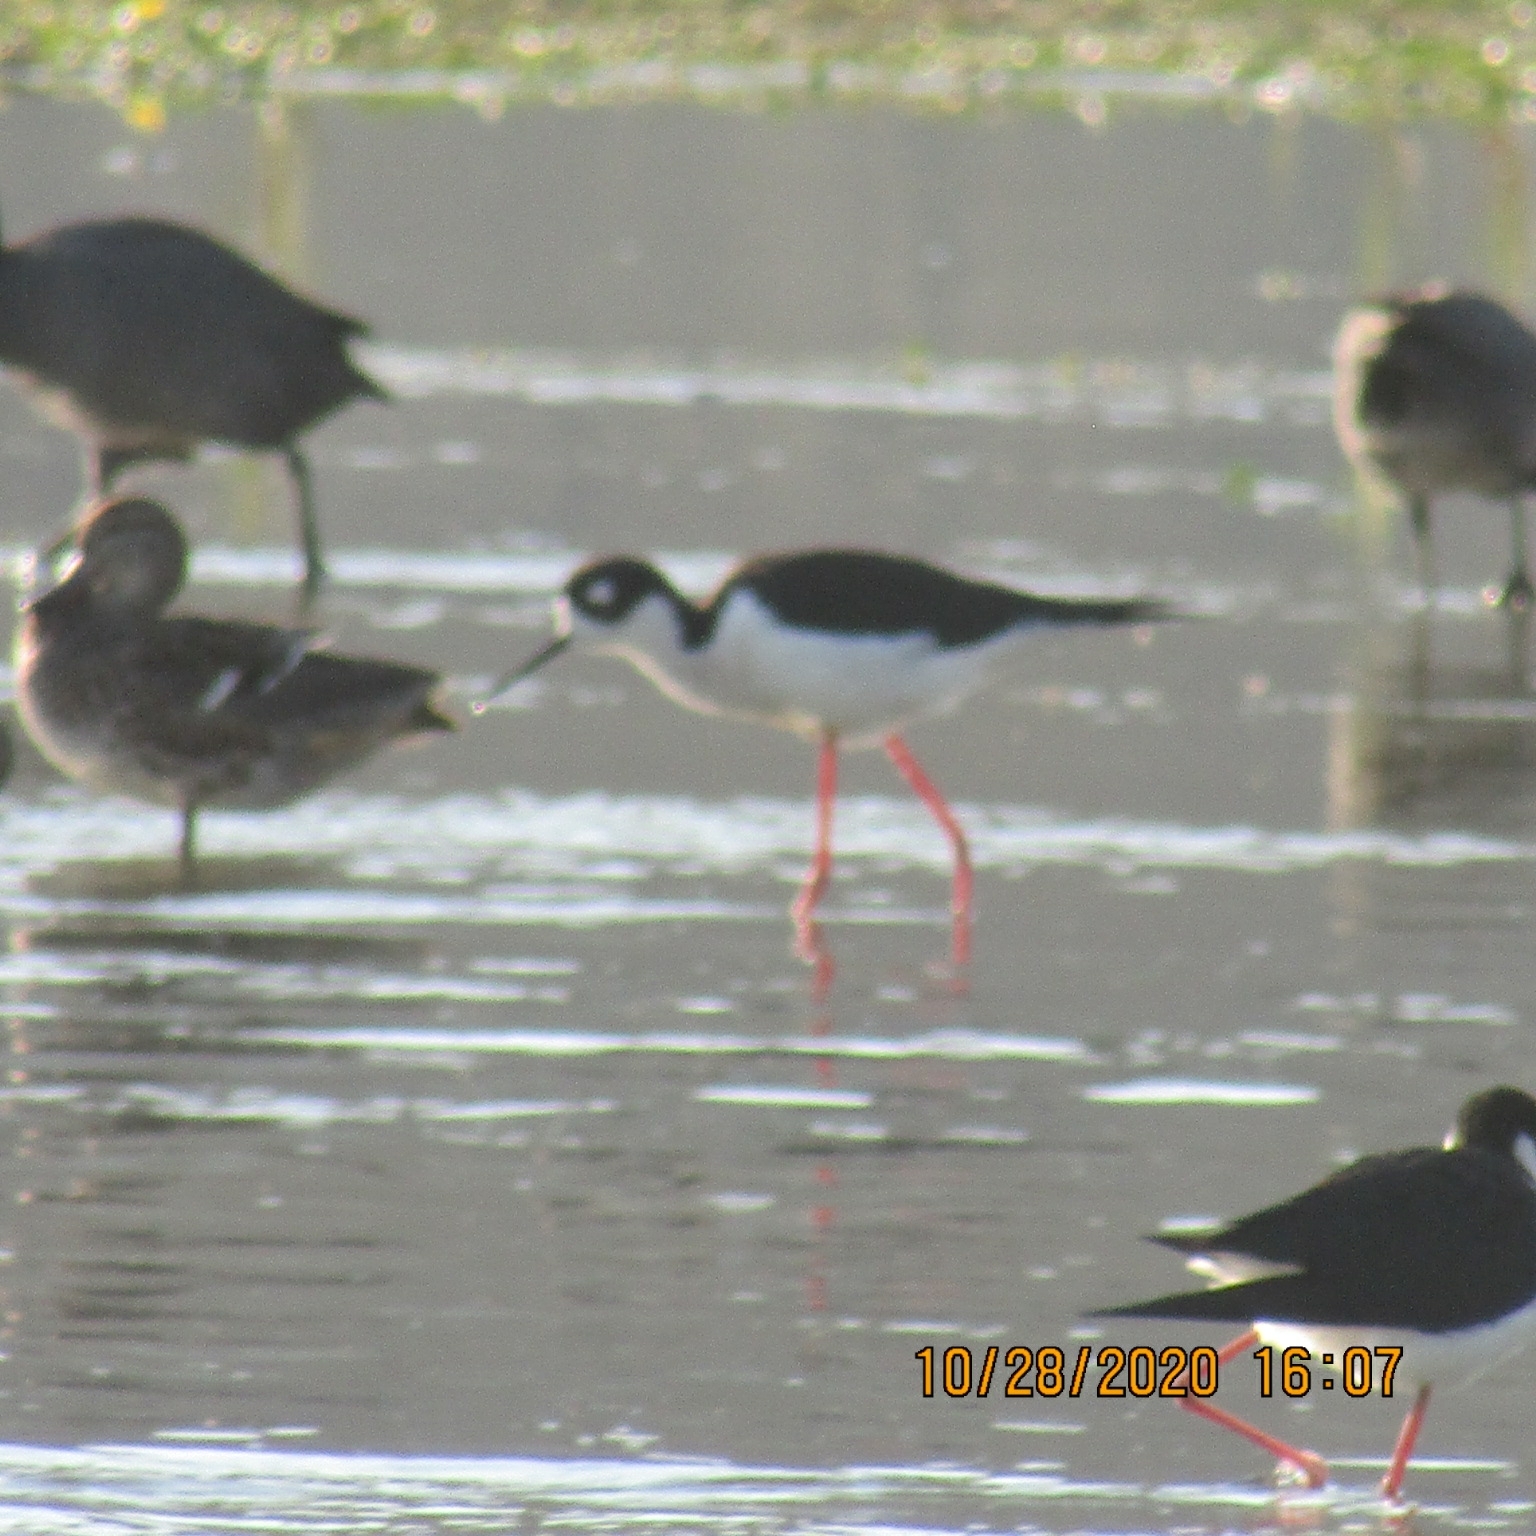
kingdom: Animalia
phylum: Chordata
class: Aves
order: Charadriiformes
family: Recurvirostridae
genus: Himantopus
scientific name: Himantopus mexicanus
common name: Black-necked stilt
